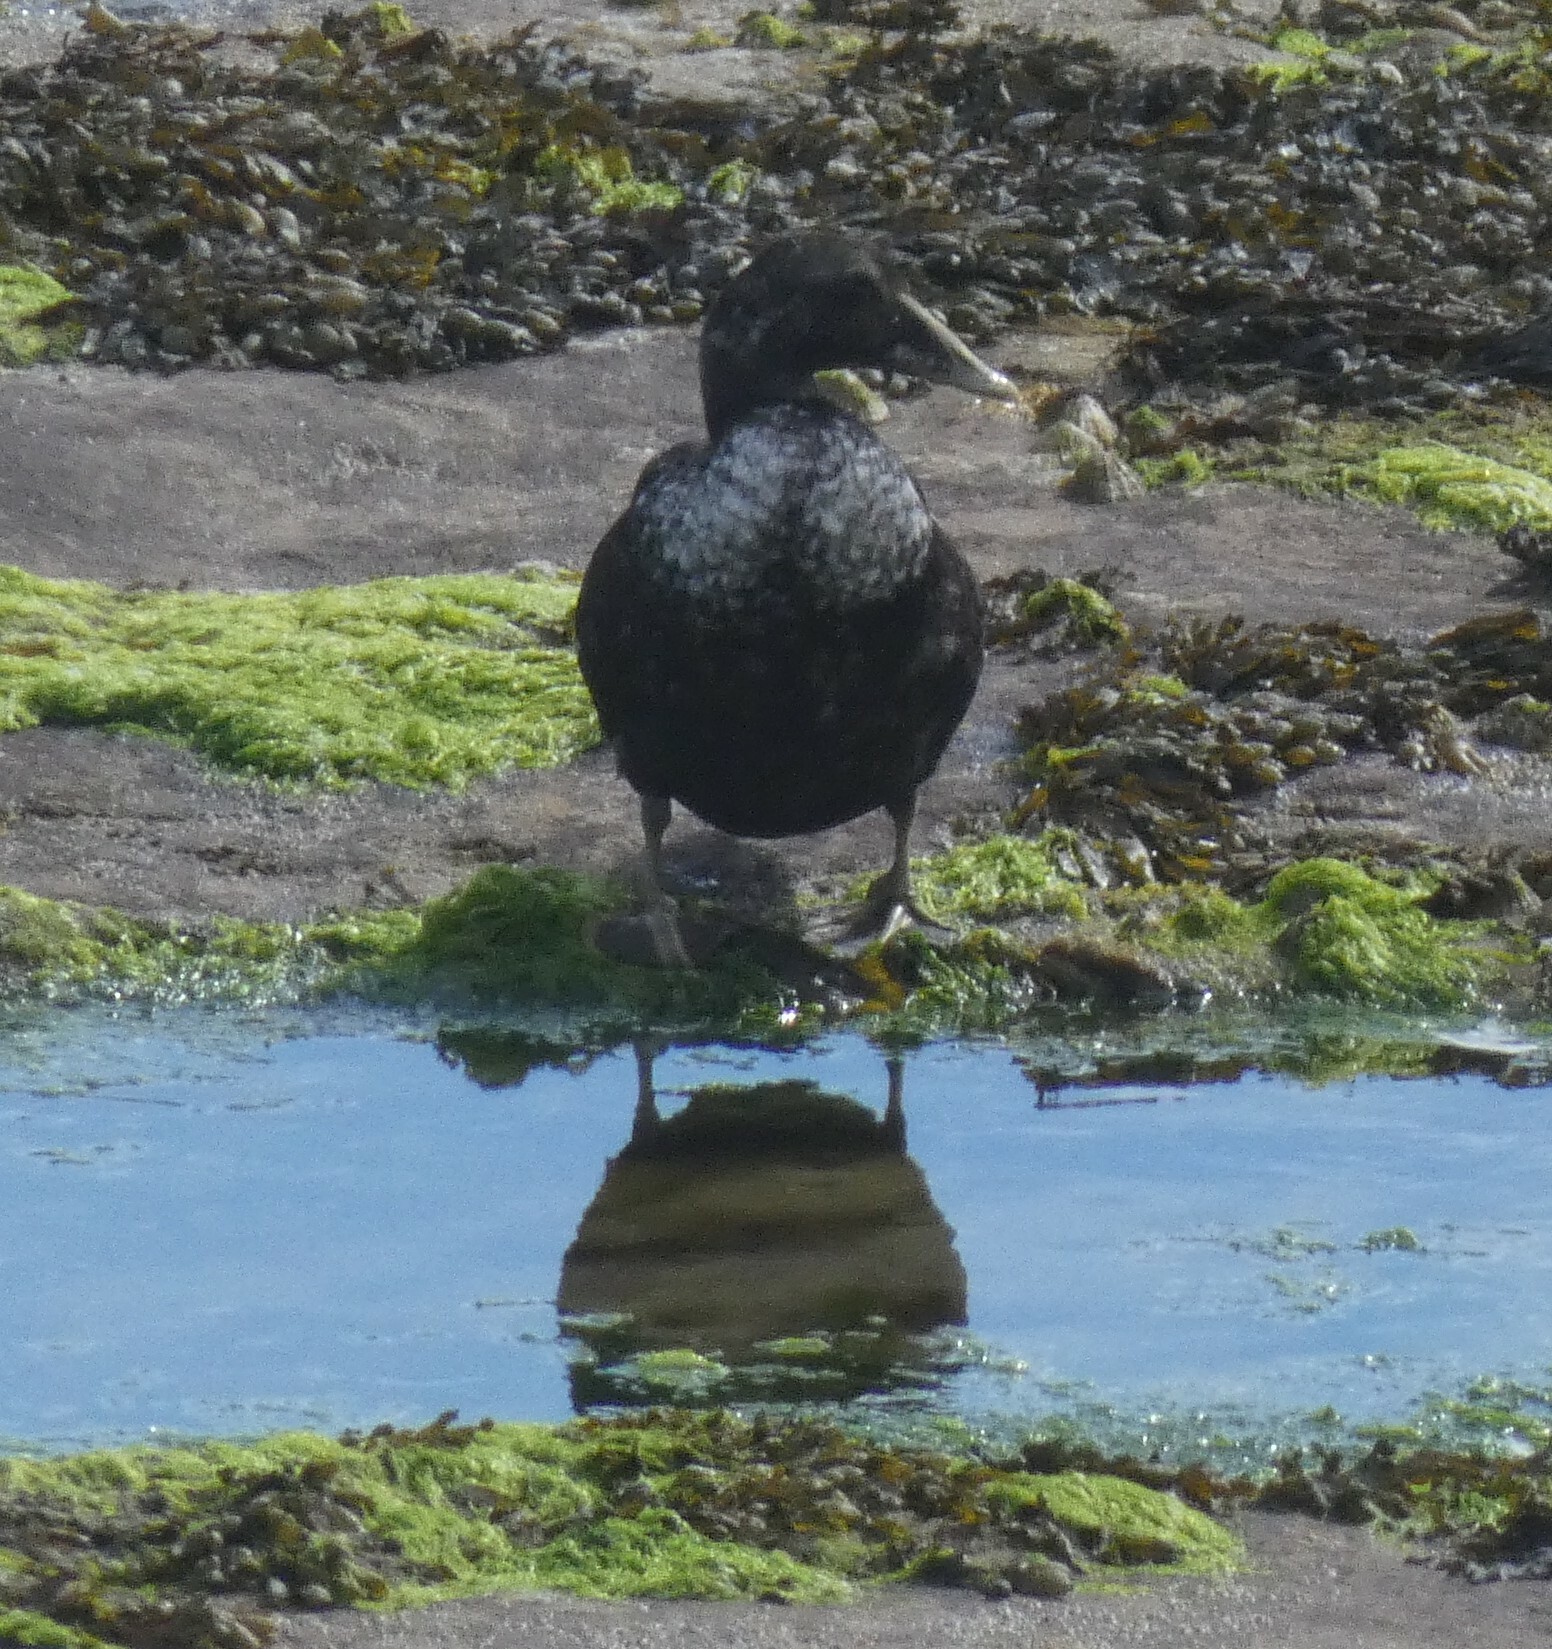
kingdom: Animalia
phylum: Chordata
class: Aves
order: Anseriformes
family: Anatidae
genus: Somateria
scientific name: Somateria mollissima
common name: Common eider
